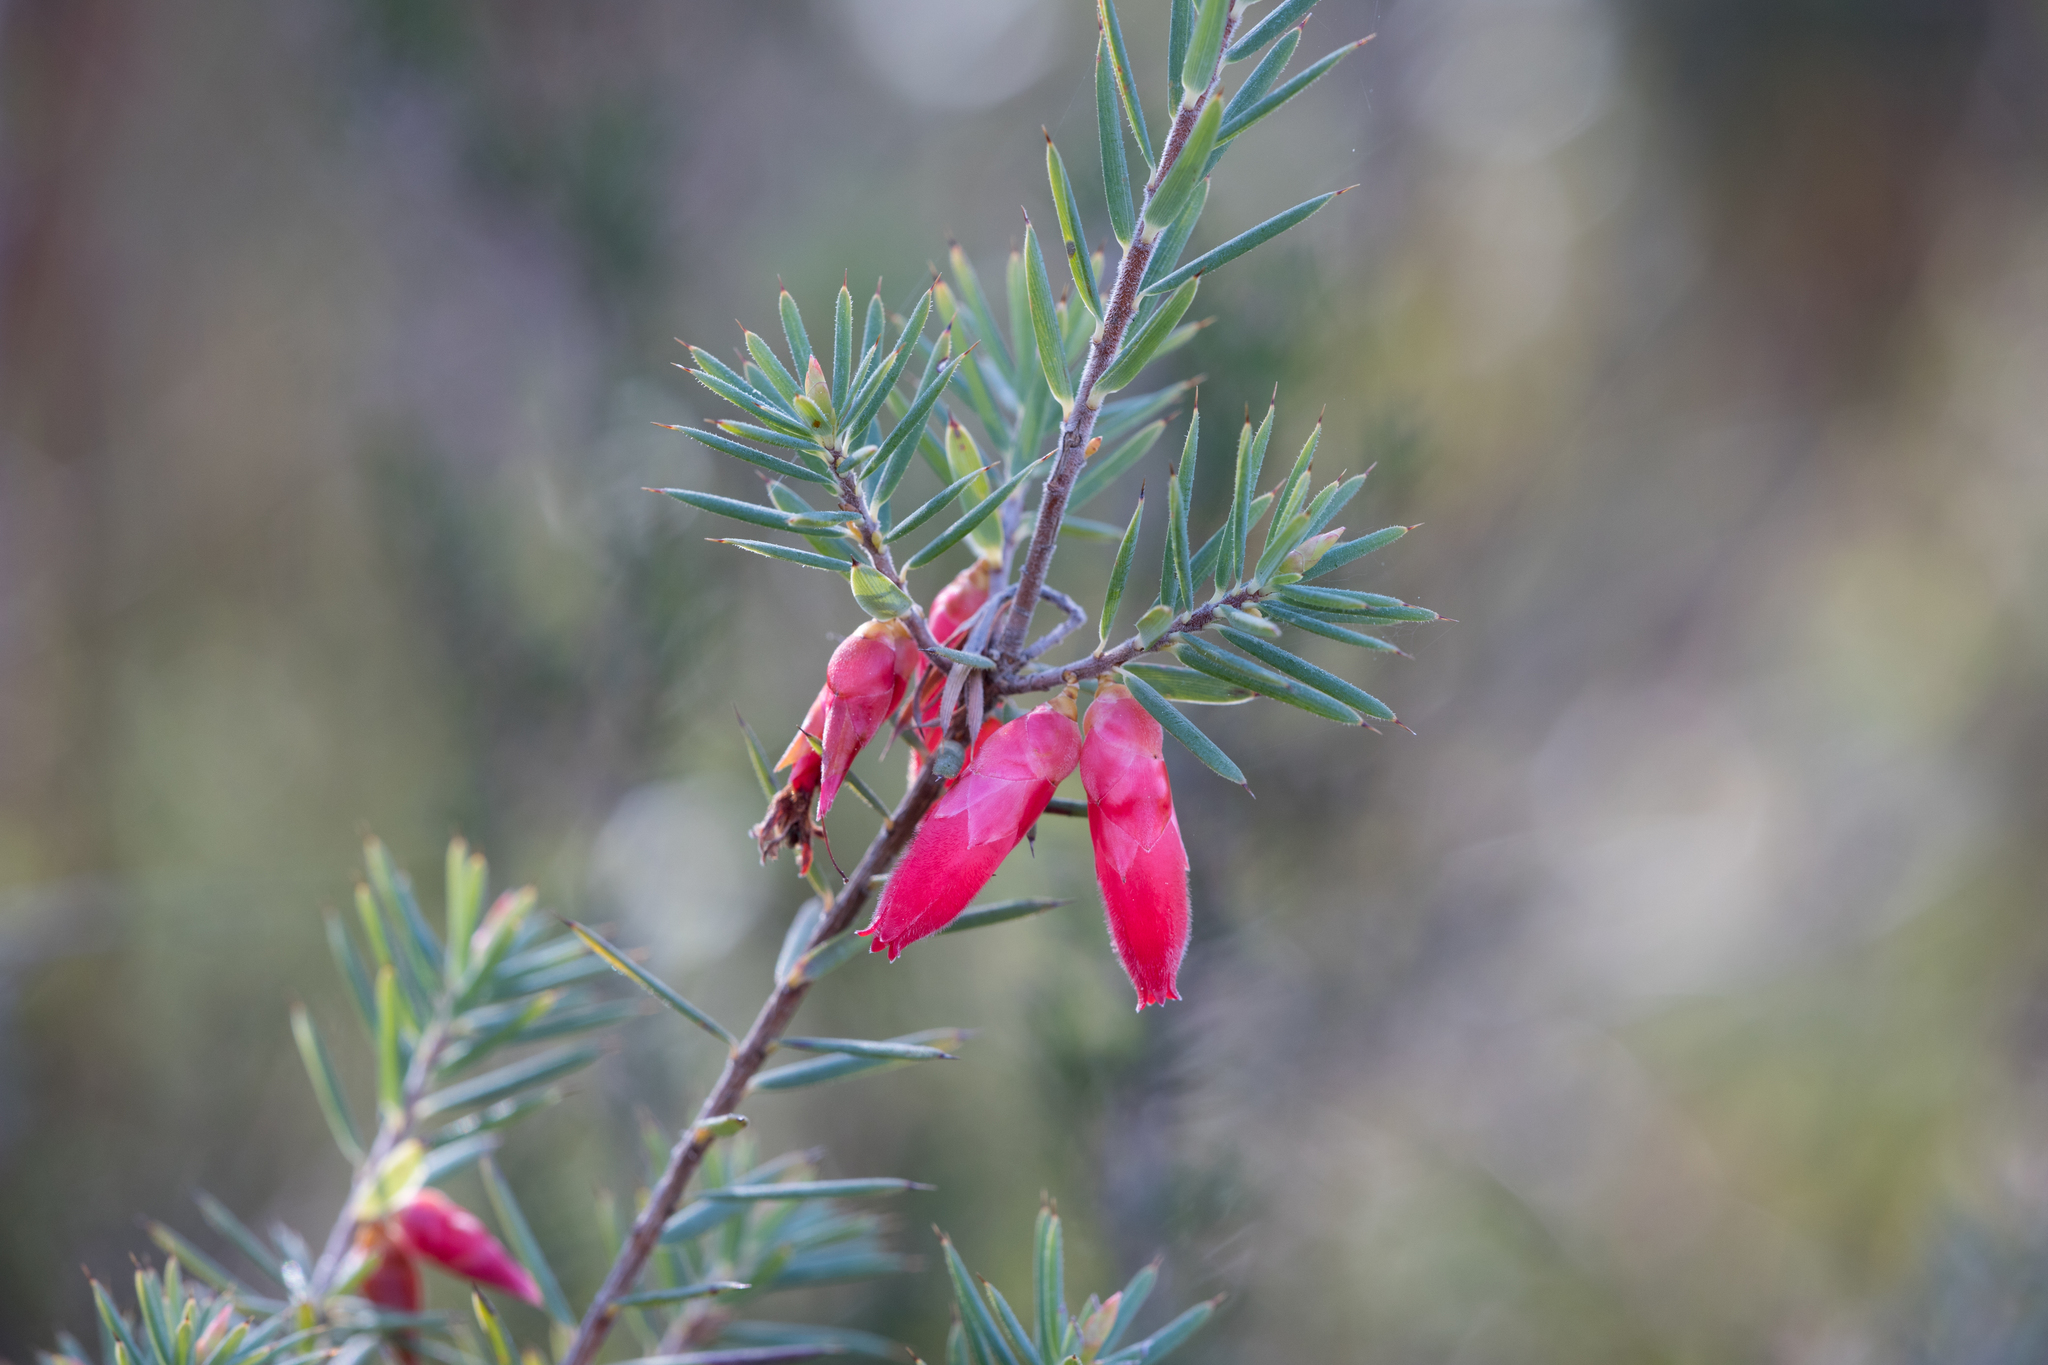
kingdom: Plantae
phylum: Tracheophyta
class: Magnoliopsida
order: Ericales
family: Ericaceae
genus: Stenanthera
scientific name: Stenanthera conostephioides
